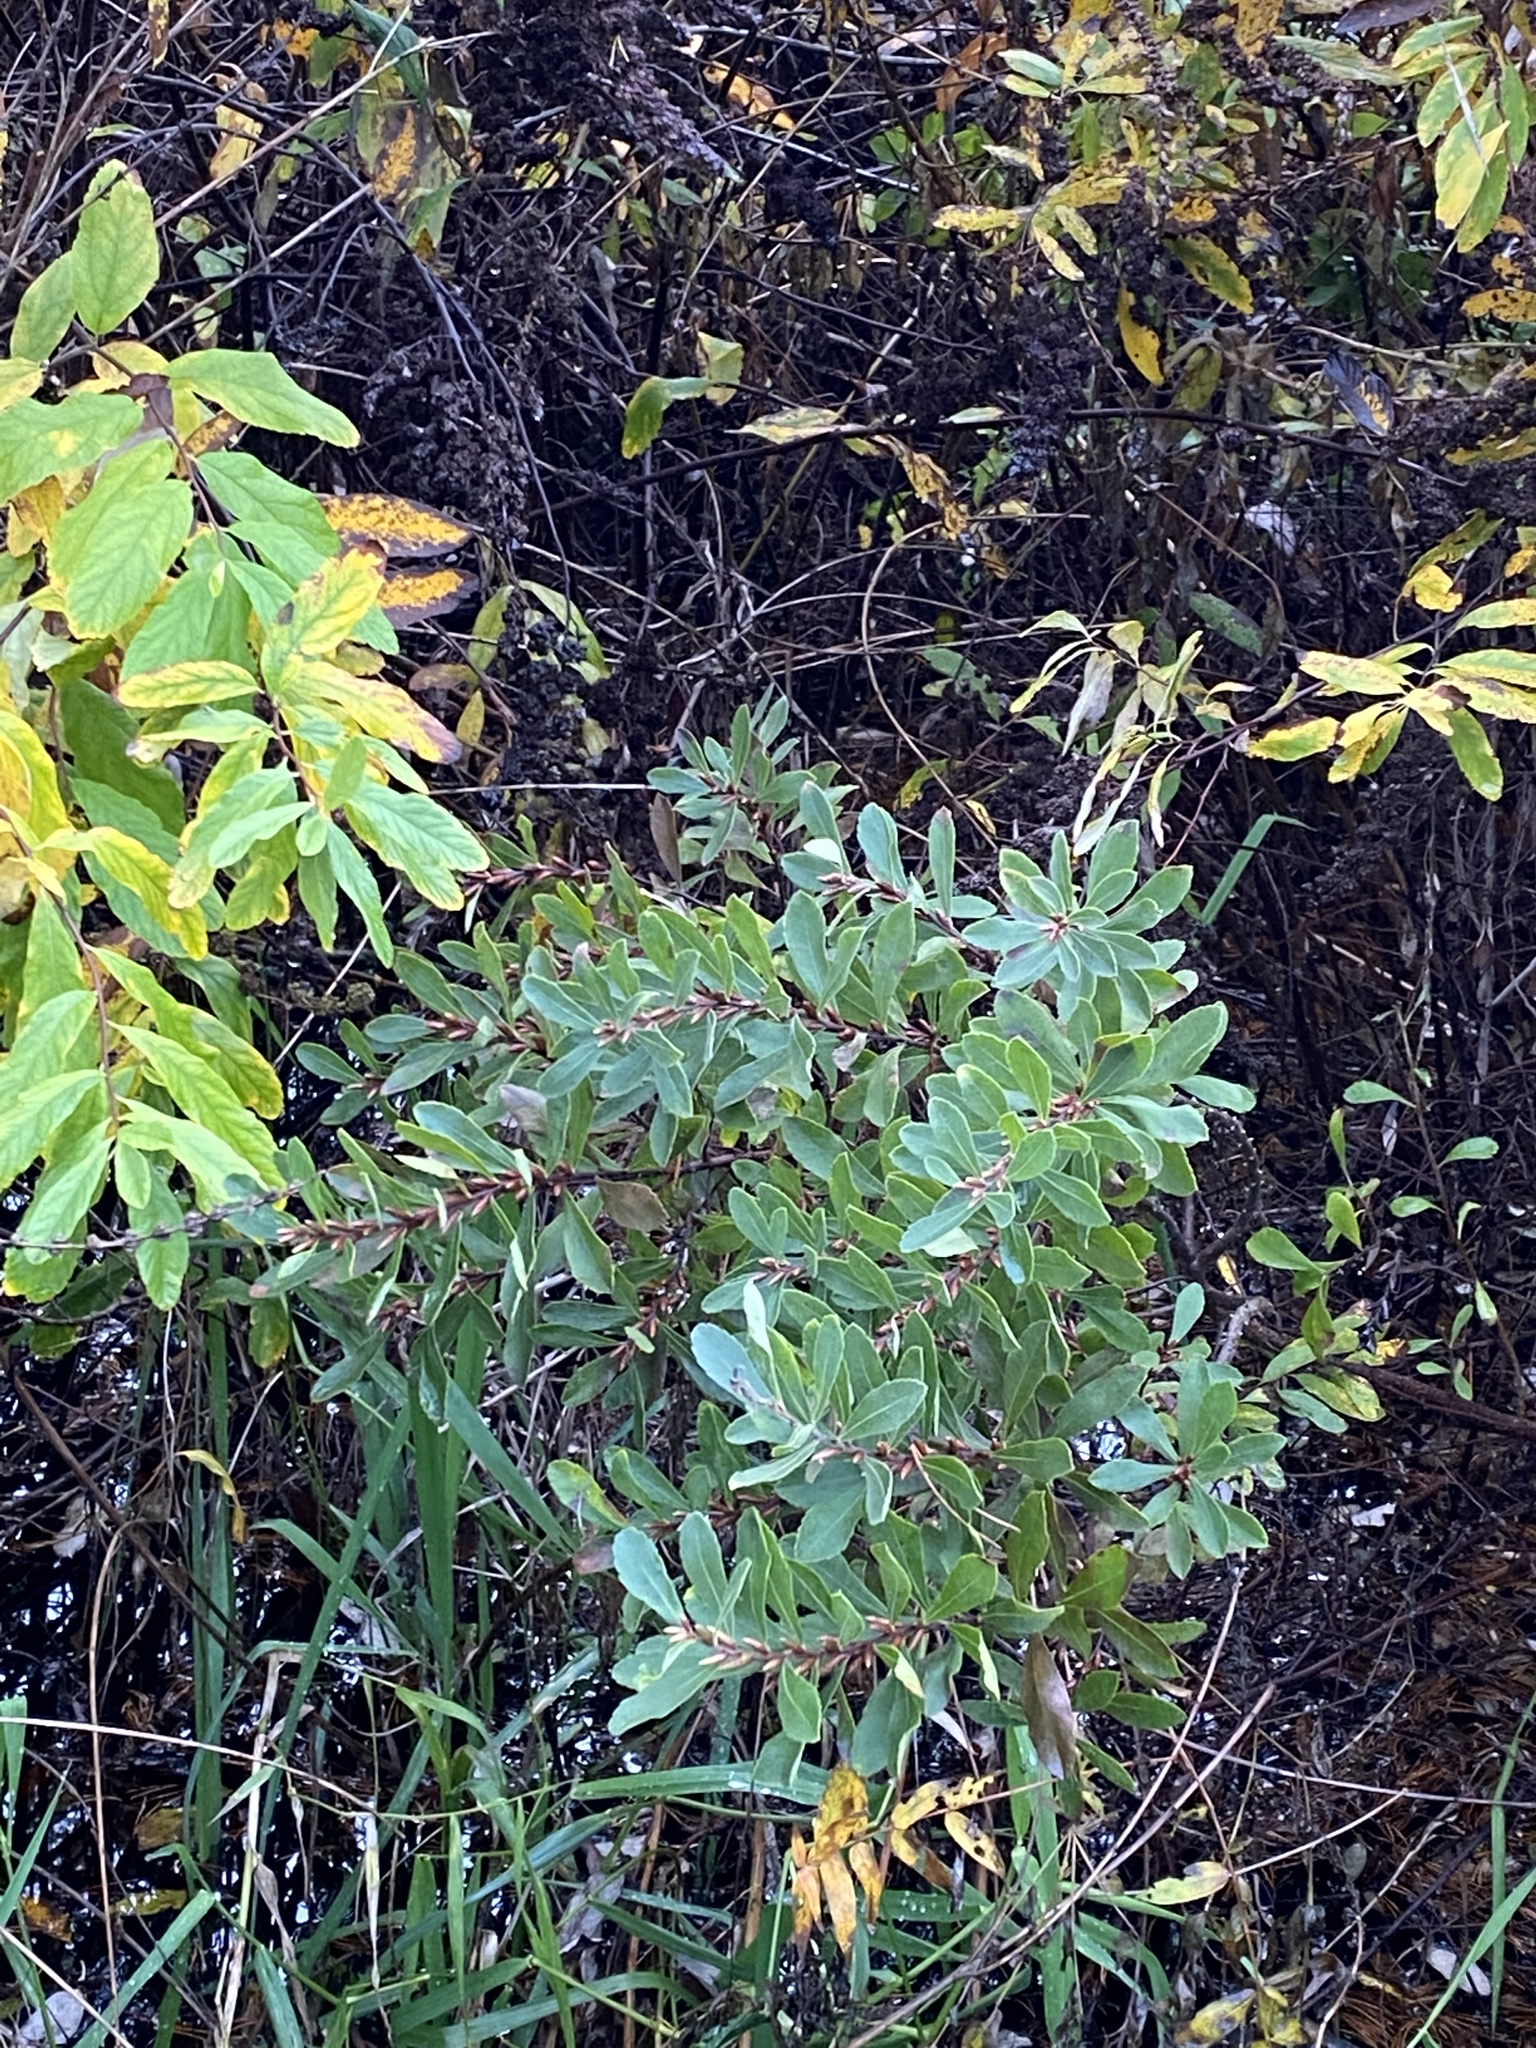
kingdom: Plantae
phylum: Tracheophyta
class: Magnoliopsida
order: Fagales
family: Myricaceae
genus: Myrica
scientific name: Myrica gale
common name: Sweet gale
